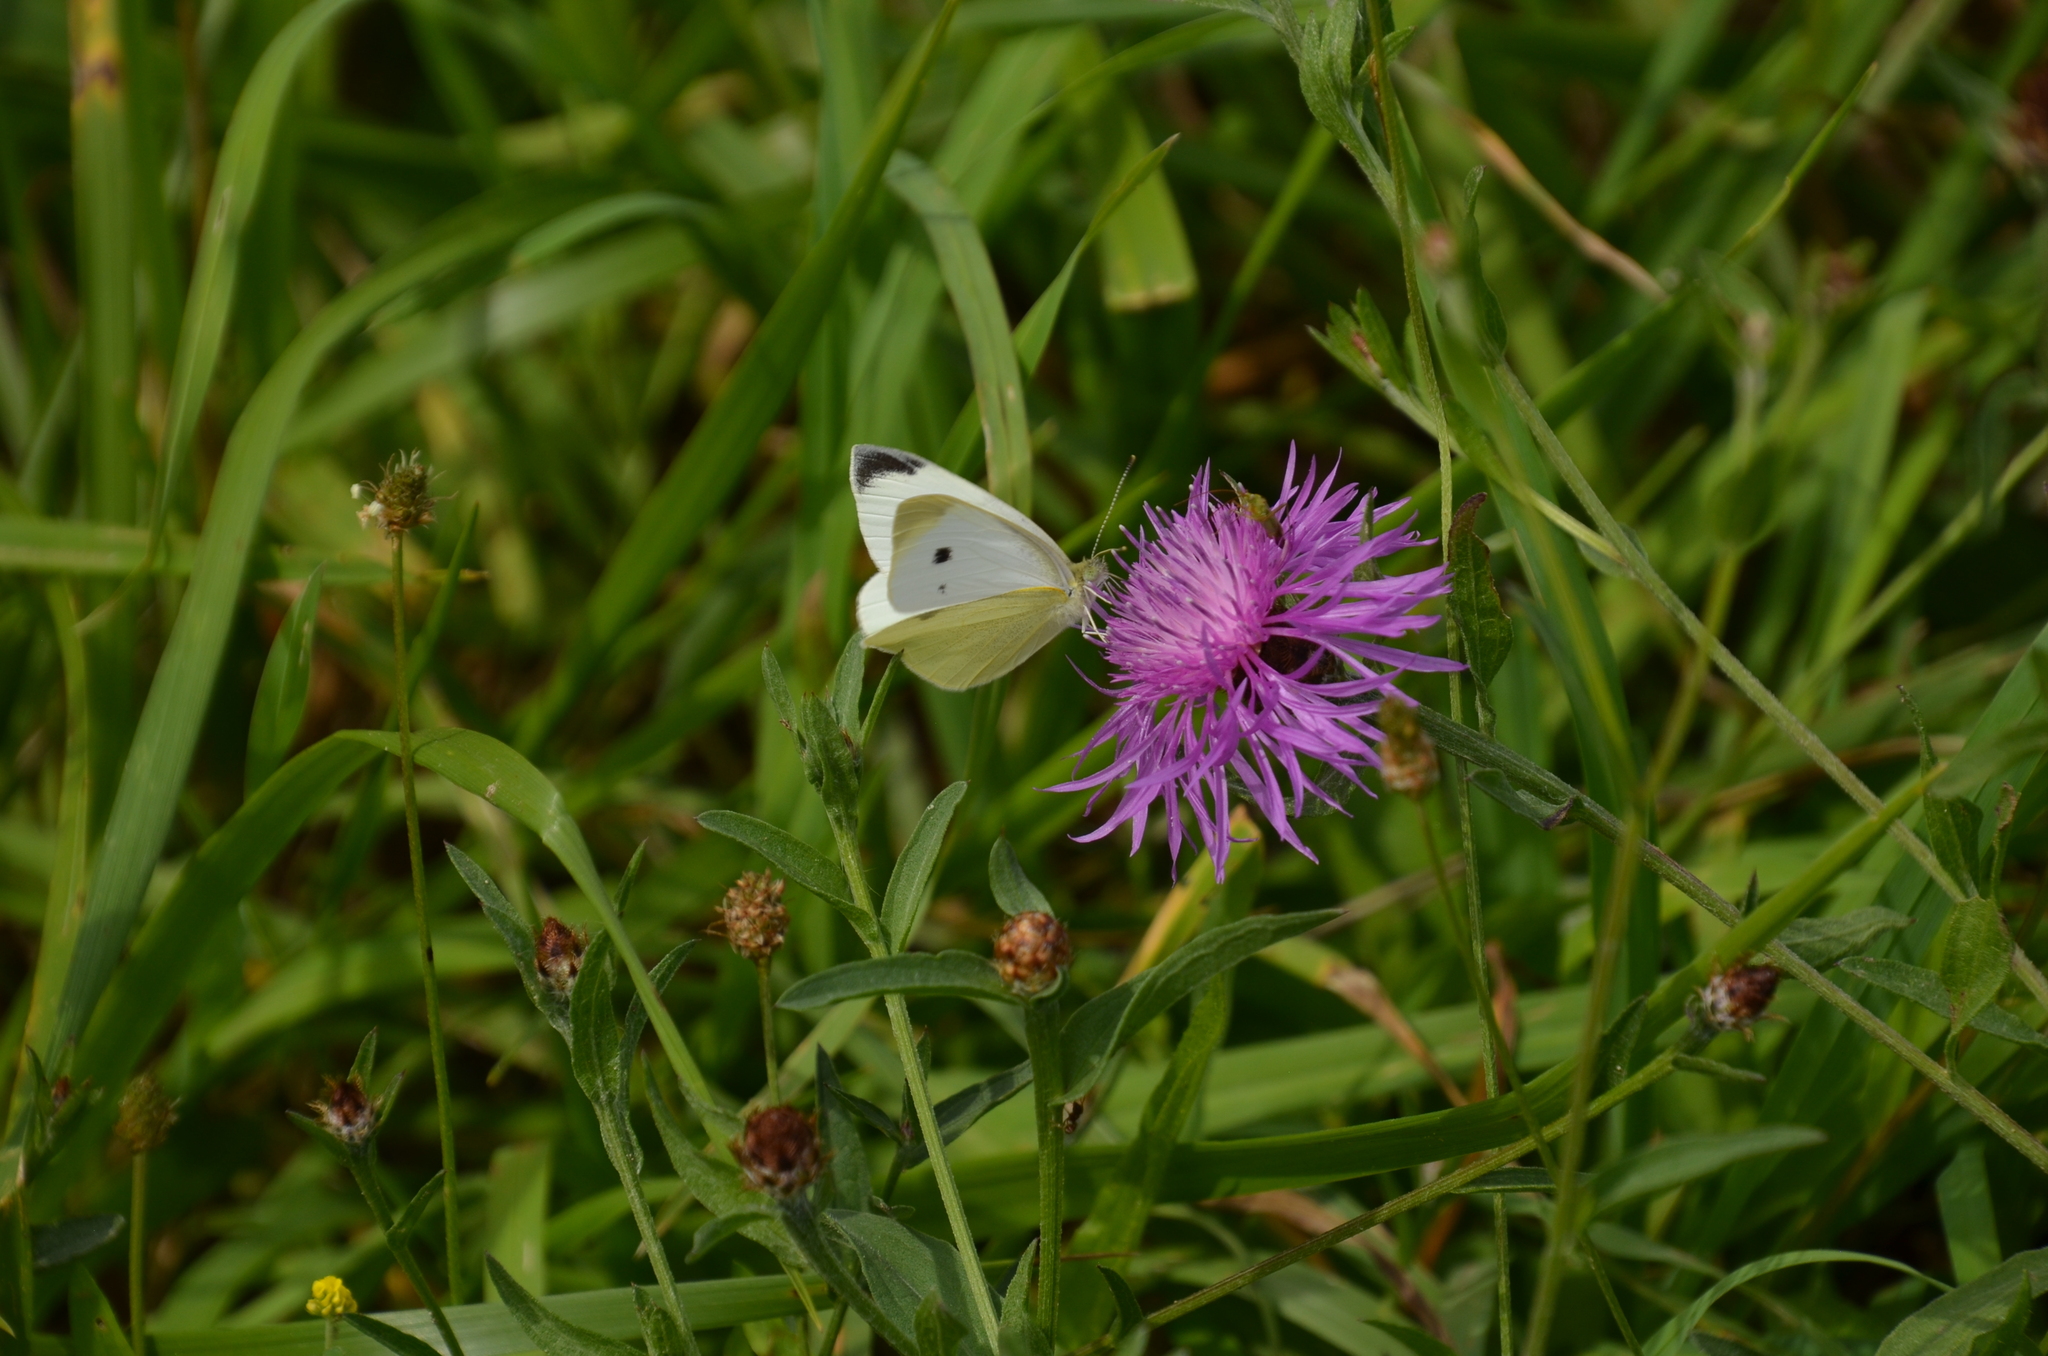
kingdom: Animalia
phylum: Arthropoda
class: Insecta
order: Lepidoptera
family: Pieridae
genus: Pieris
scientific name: Pieris rapae
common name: Small white
